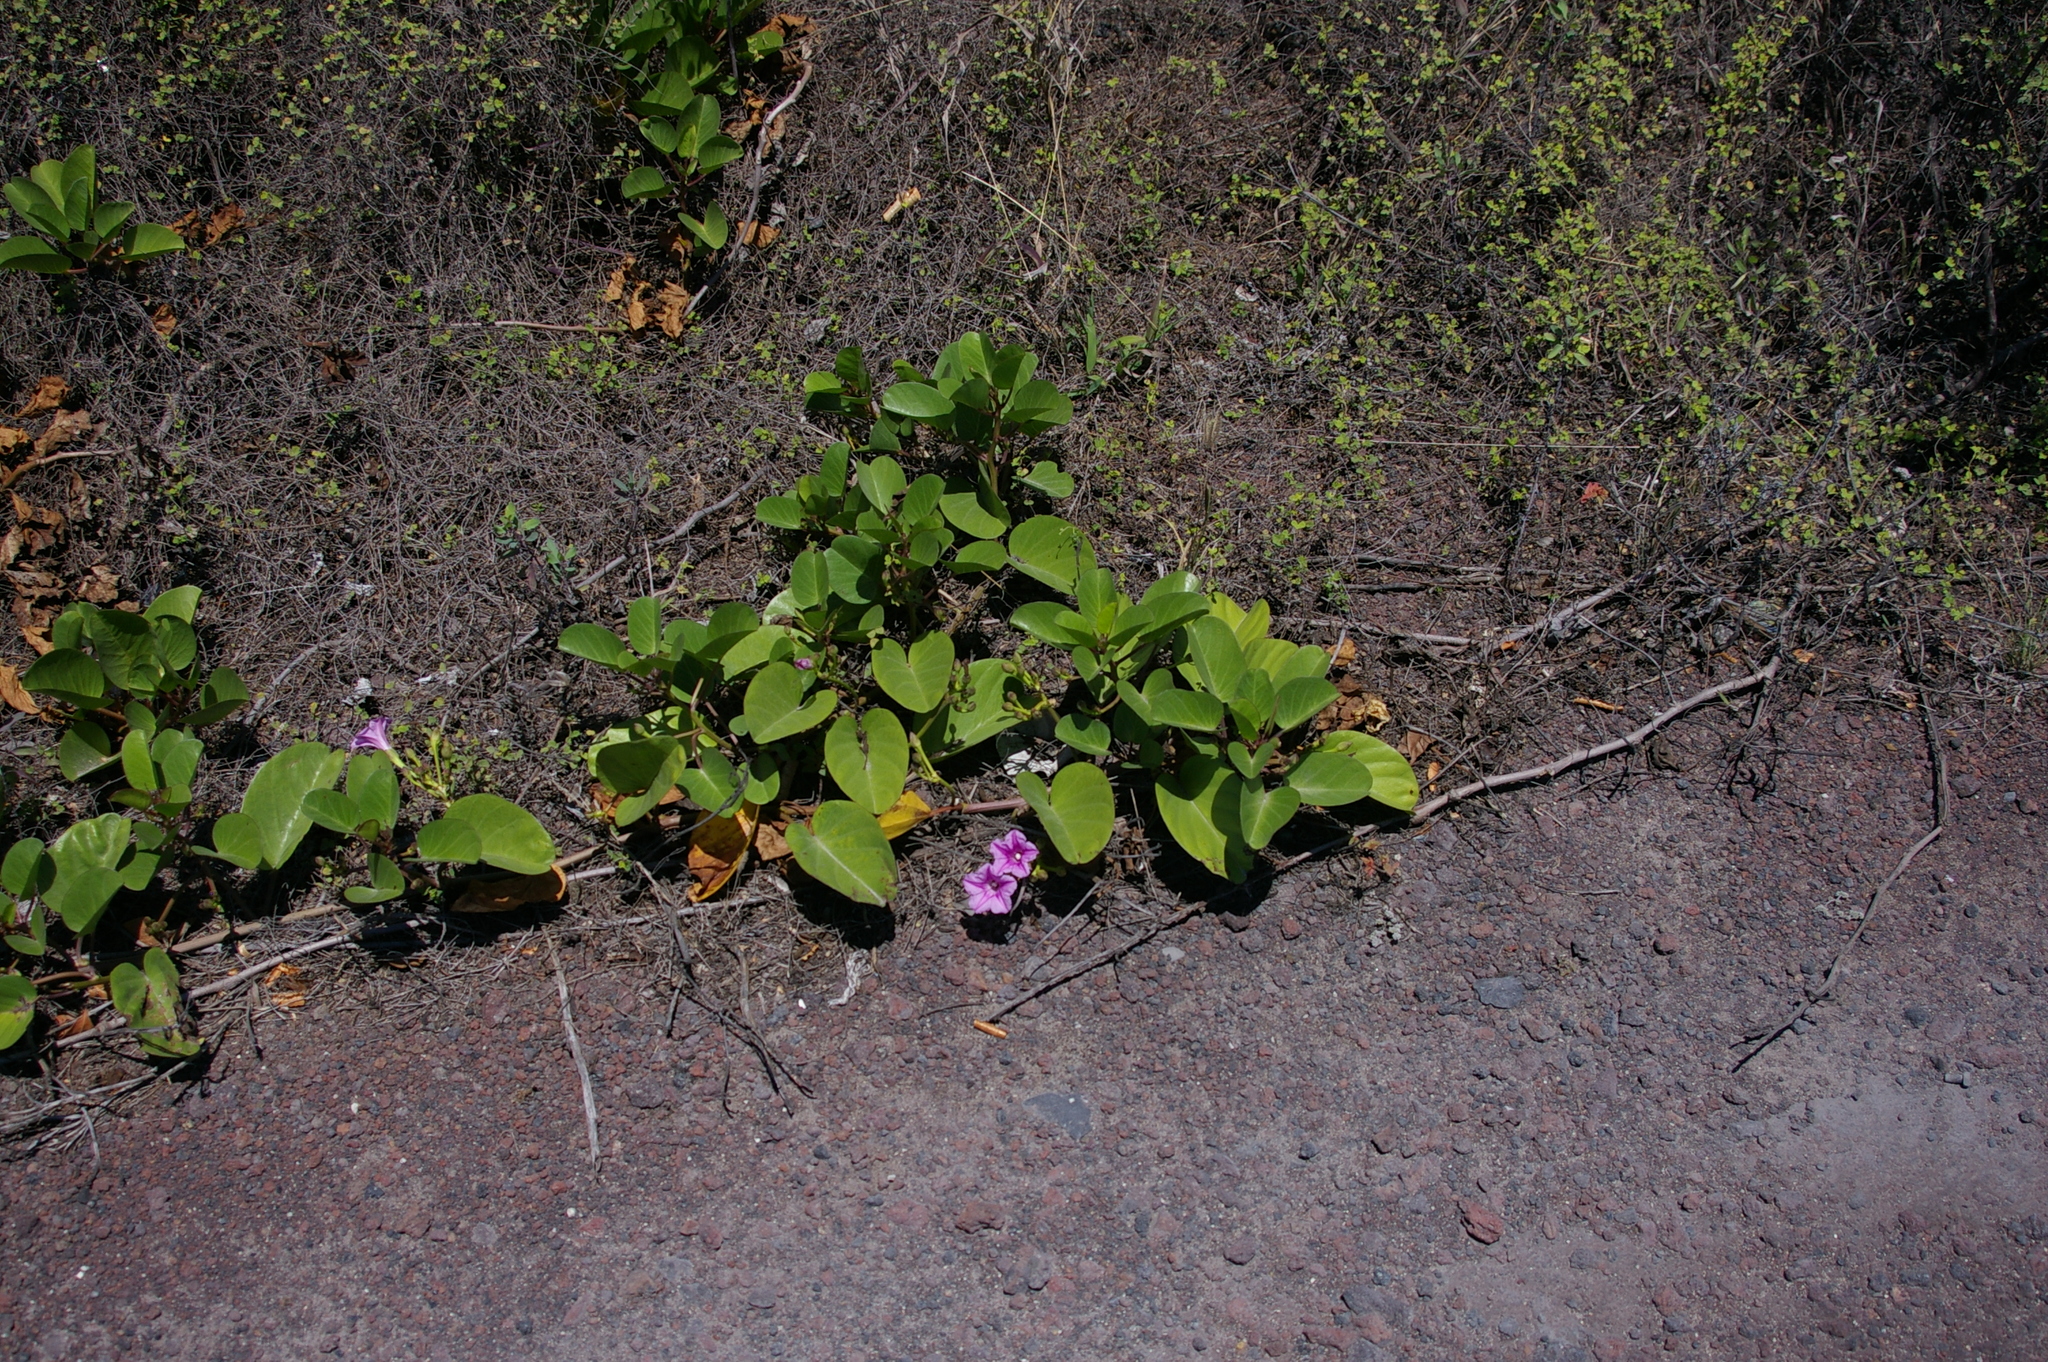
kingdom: Plantae
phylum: Tracheophyta
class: Magnoliopsida
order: Solanales
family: Convolvulaceae
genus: Ipomoea
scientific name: Ipomoea pes-caprae
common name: Beach morning glory
